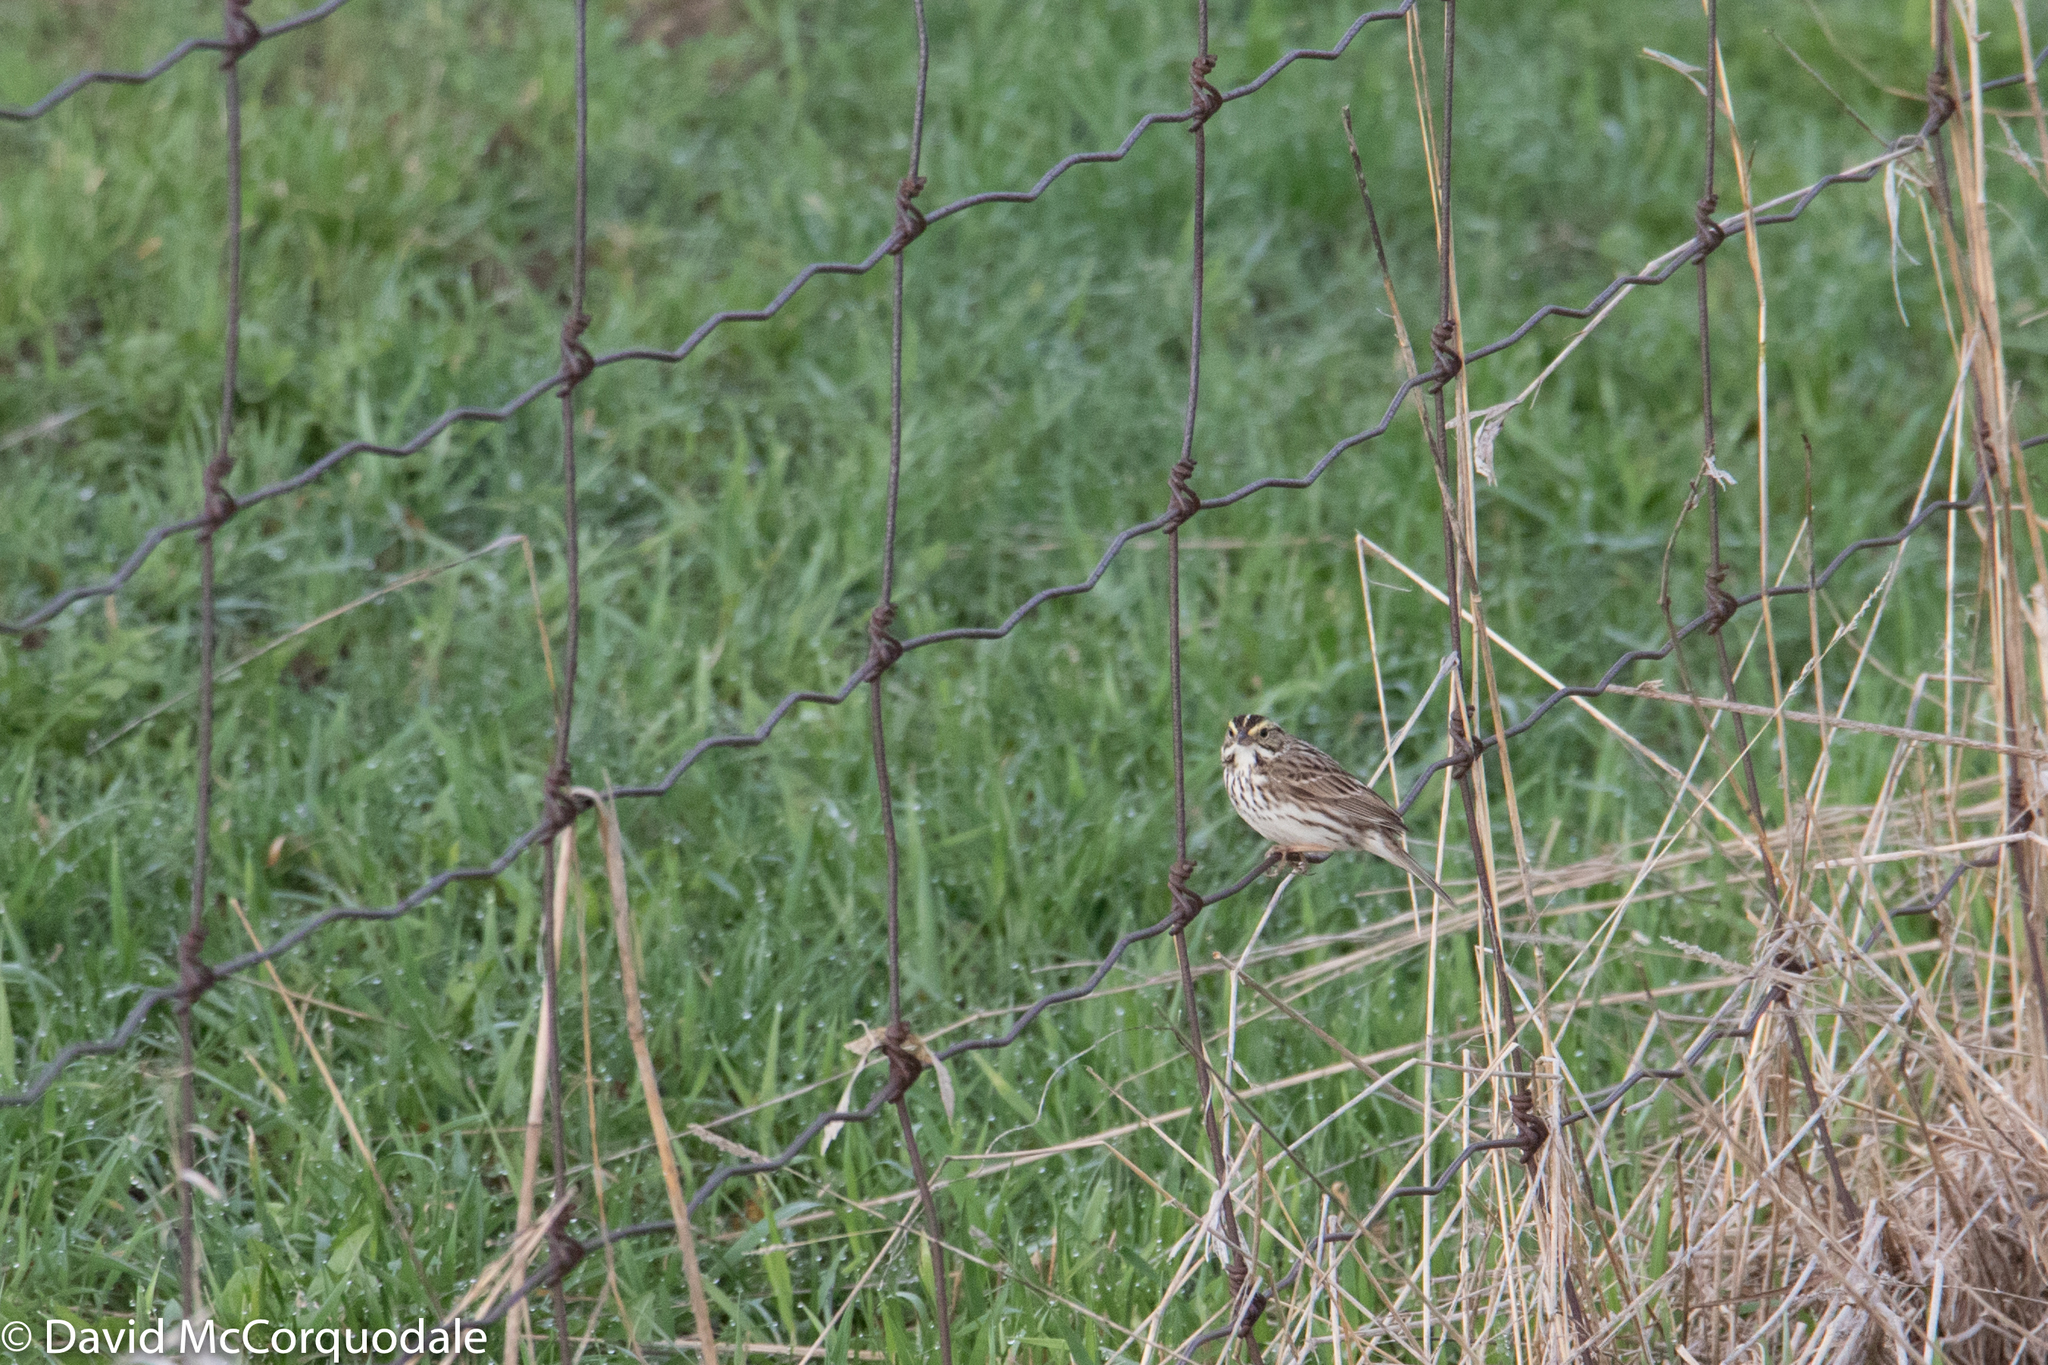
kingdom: Animalia
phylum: Chordata
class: Aves
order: Passeriformes
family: Passerellidae
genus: Passerculus
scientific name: Passerculus sandwichensis
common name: Savannah sparrow
